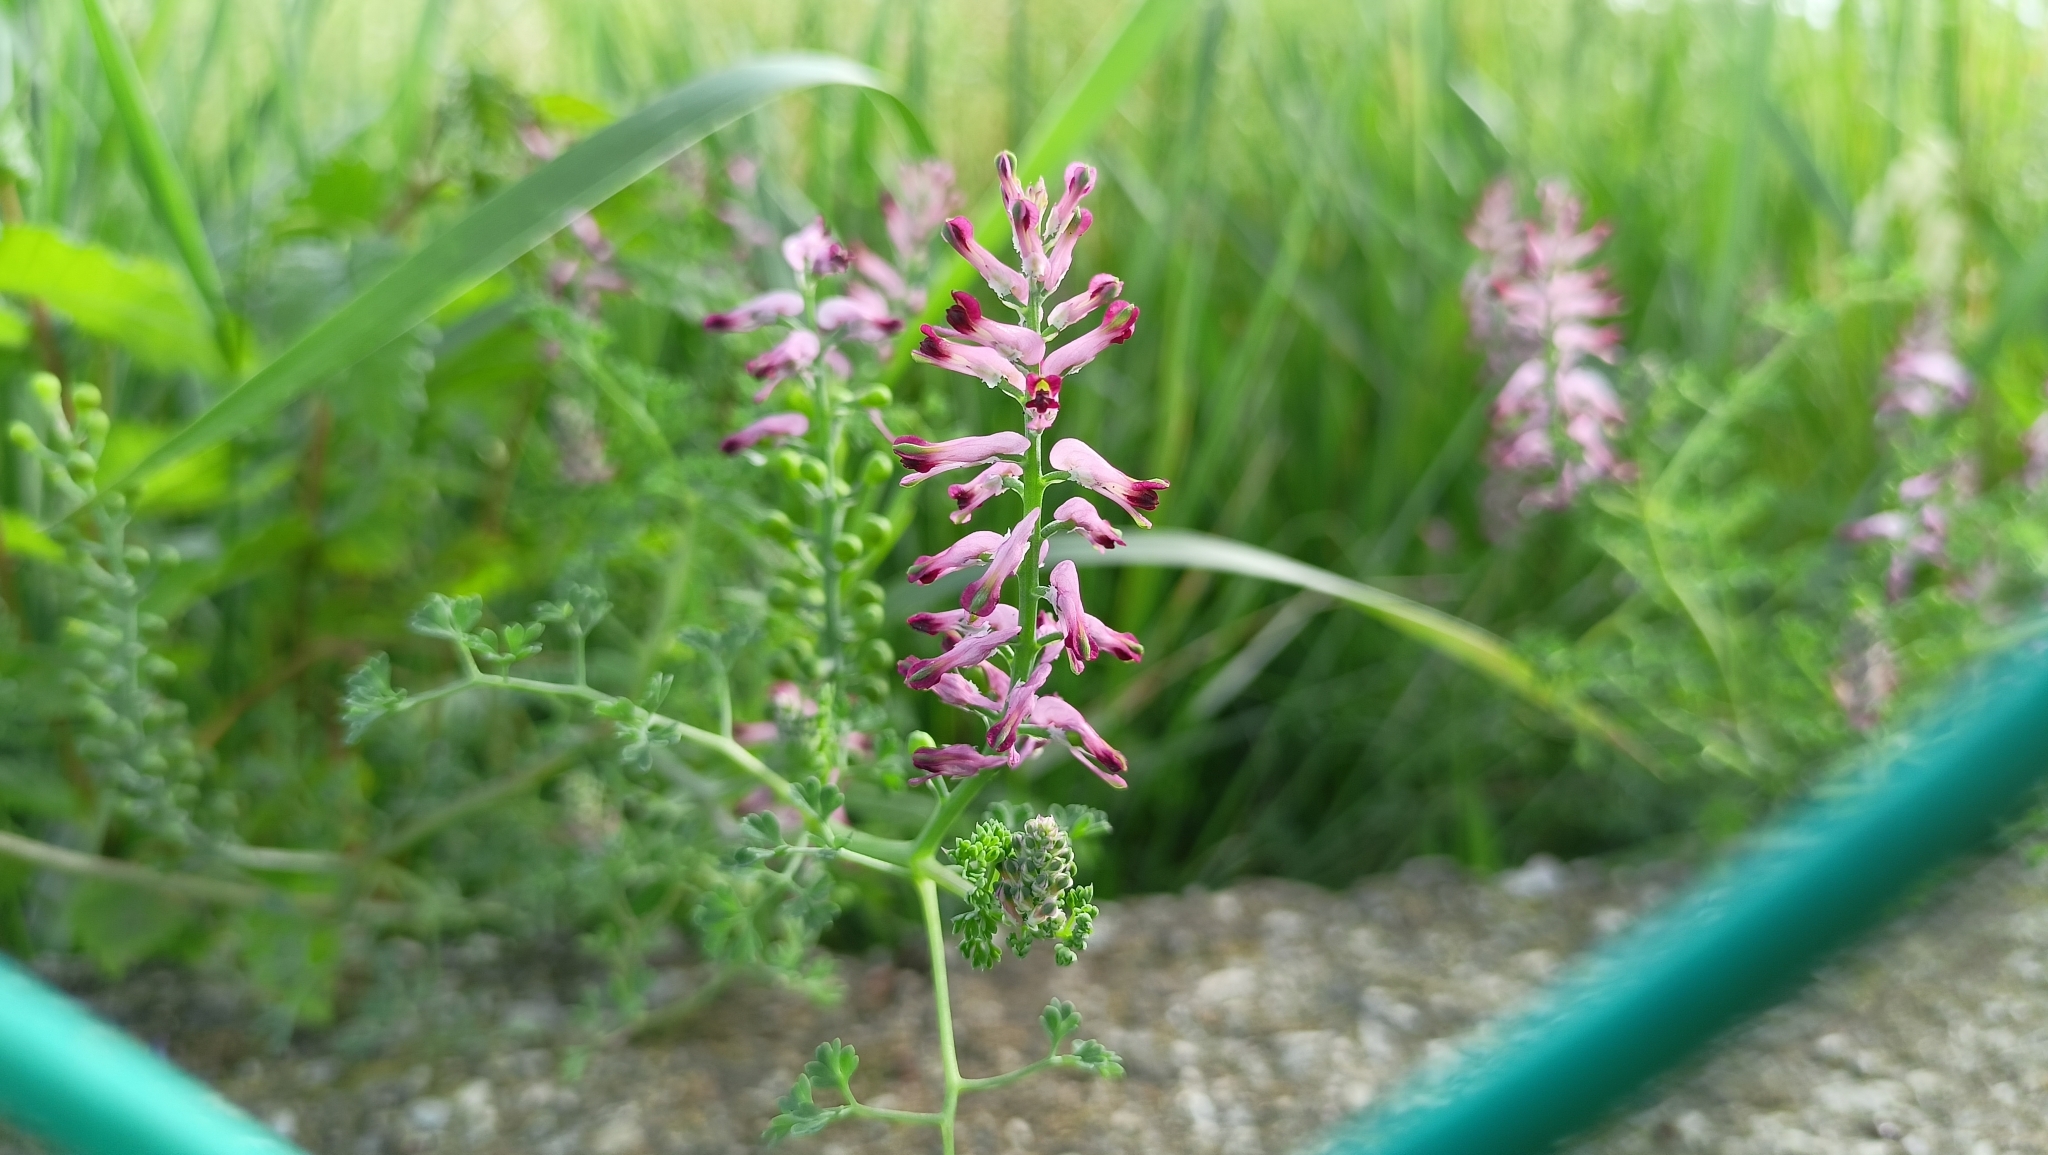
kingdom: Plantae
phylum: Tracheophyta
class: Magnoliopsida
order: Ranunculales
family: Papaveraceae
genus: Fumaria
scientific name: Fumaria officinalis
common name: Common fumitory
